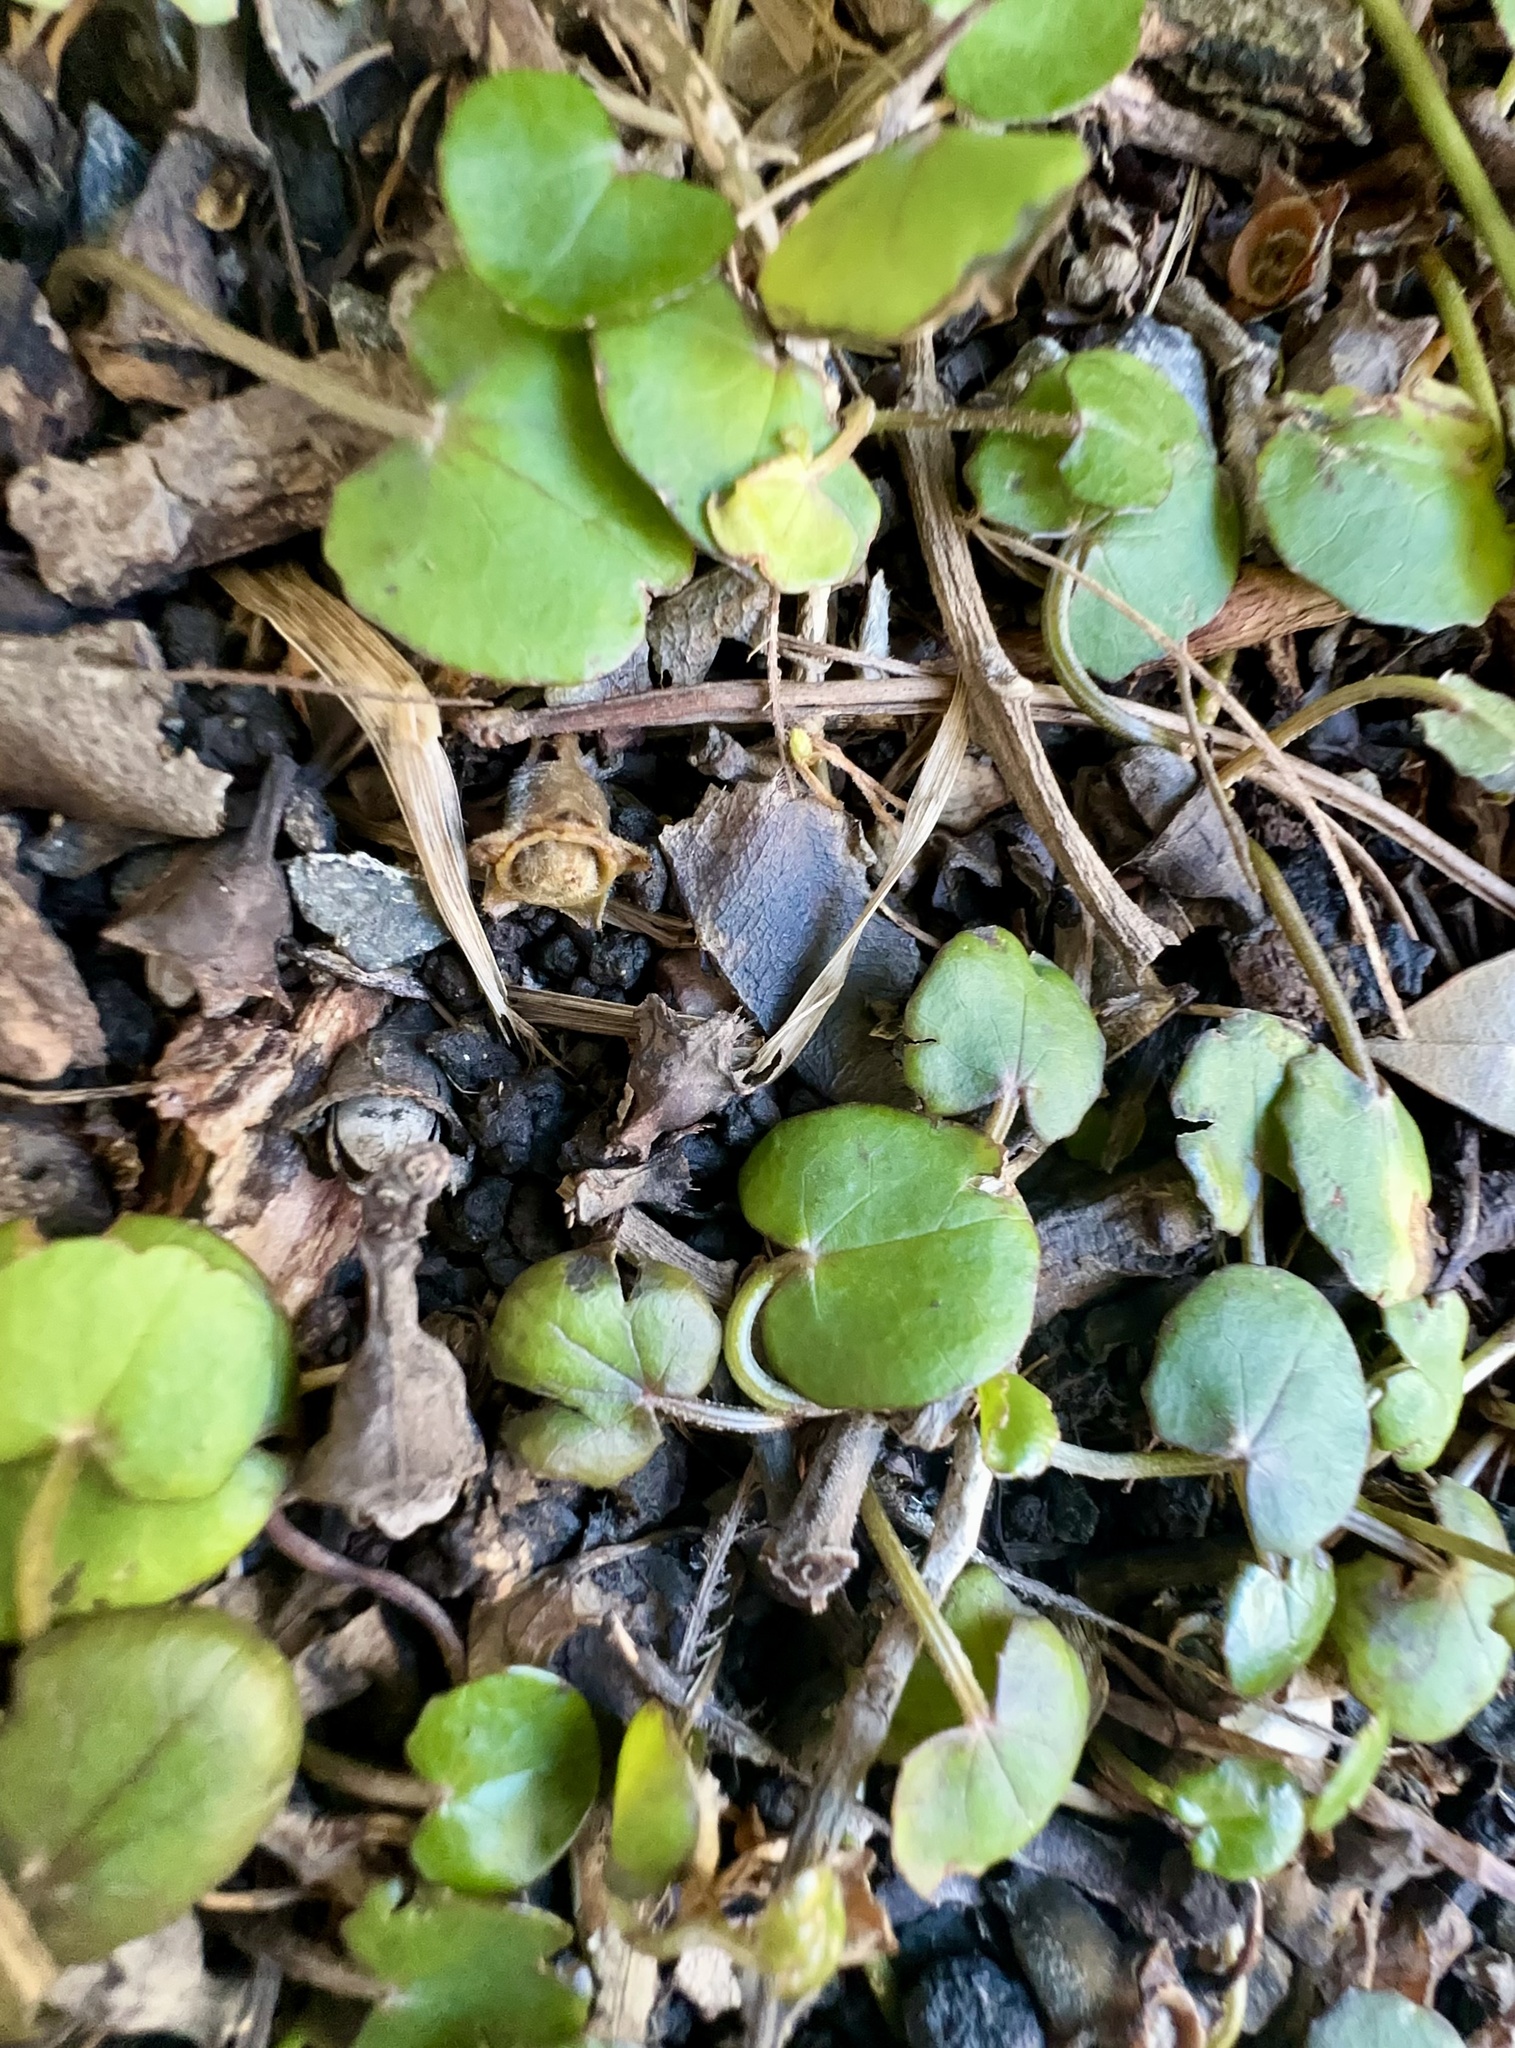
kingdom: Plantae
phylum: Tracheophyta
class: Magnoliopsida
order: Apiales
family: Apiaceae
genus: Centella
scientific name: Centella uniflora
